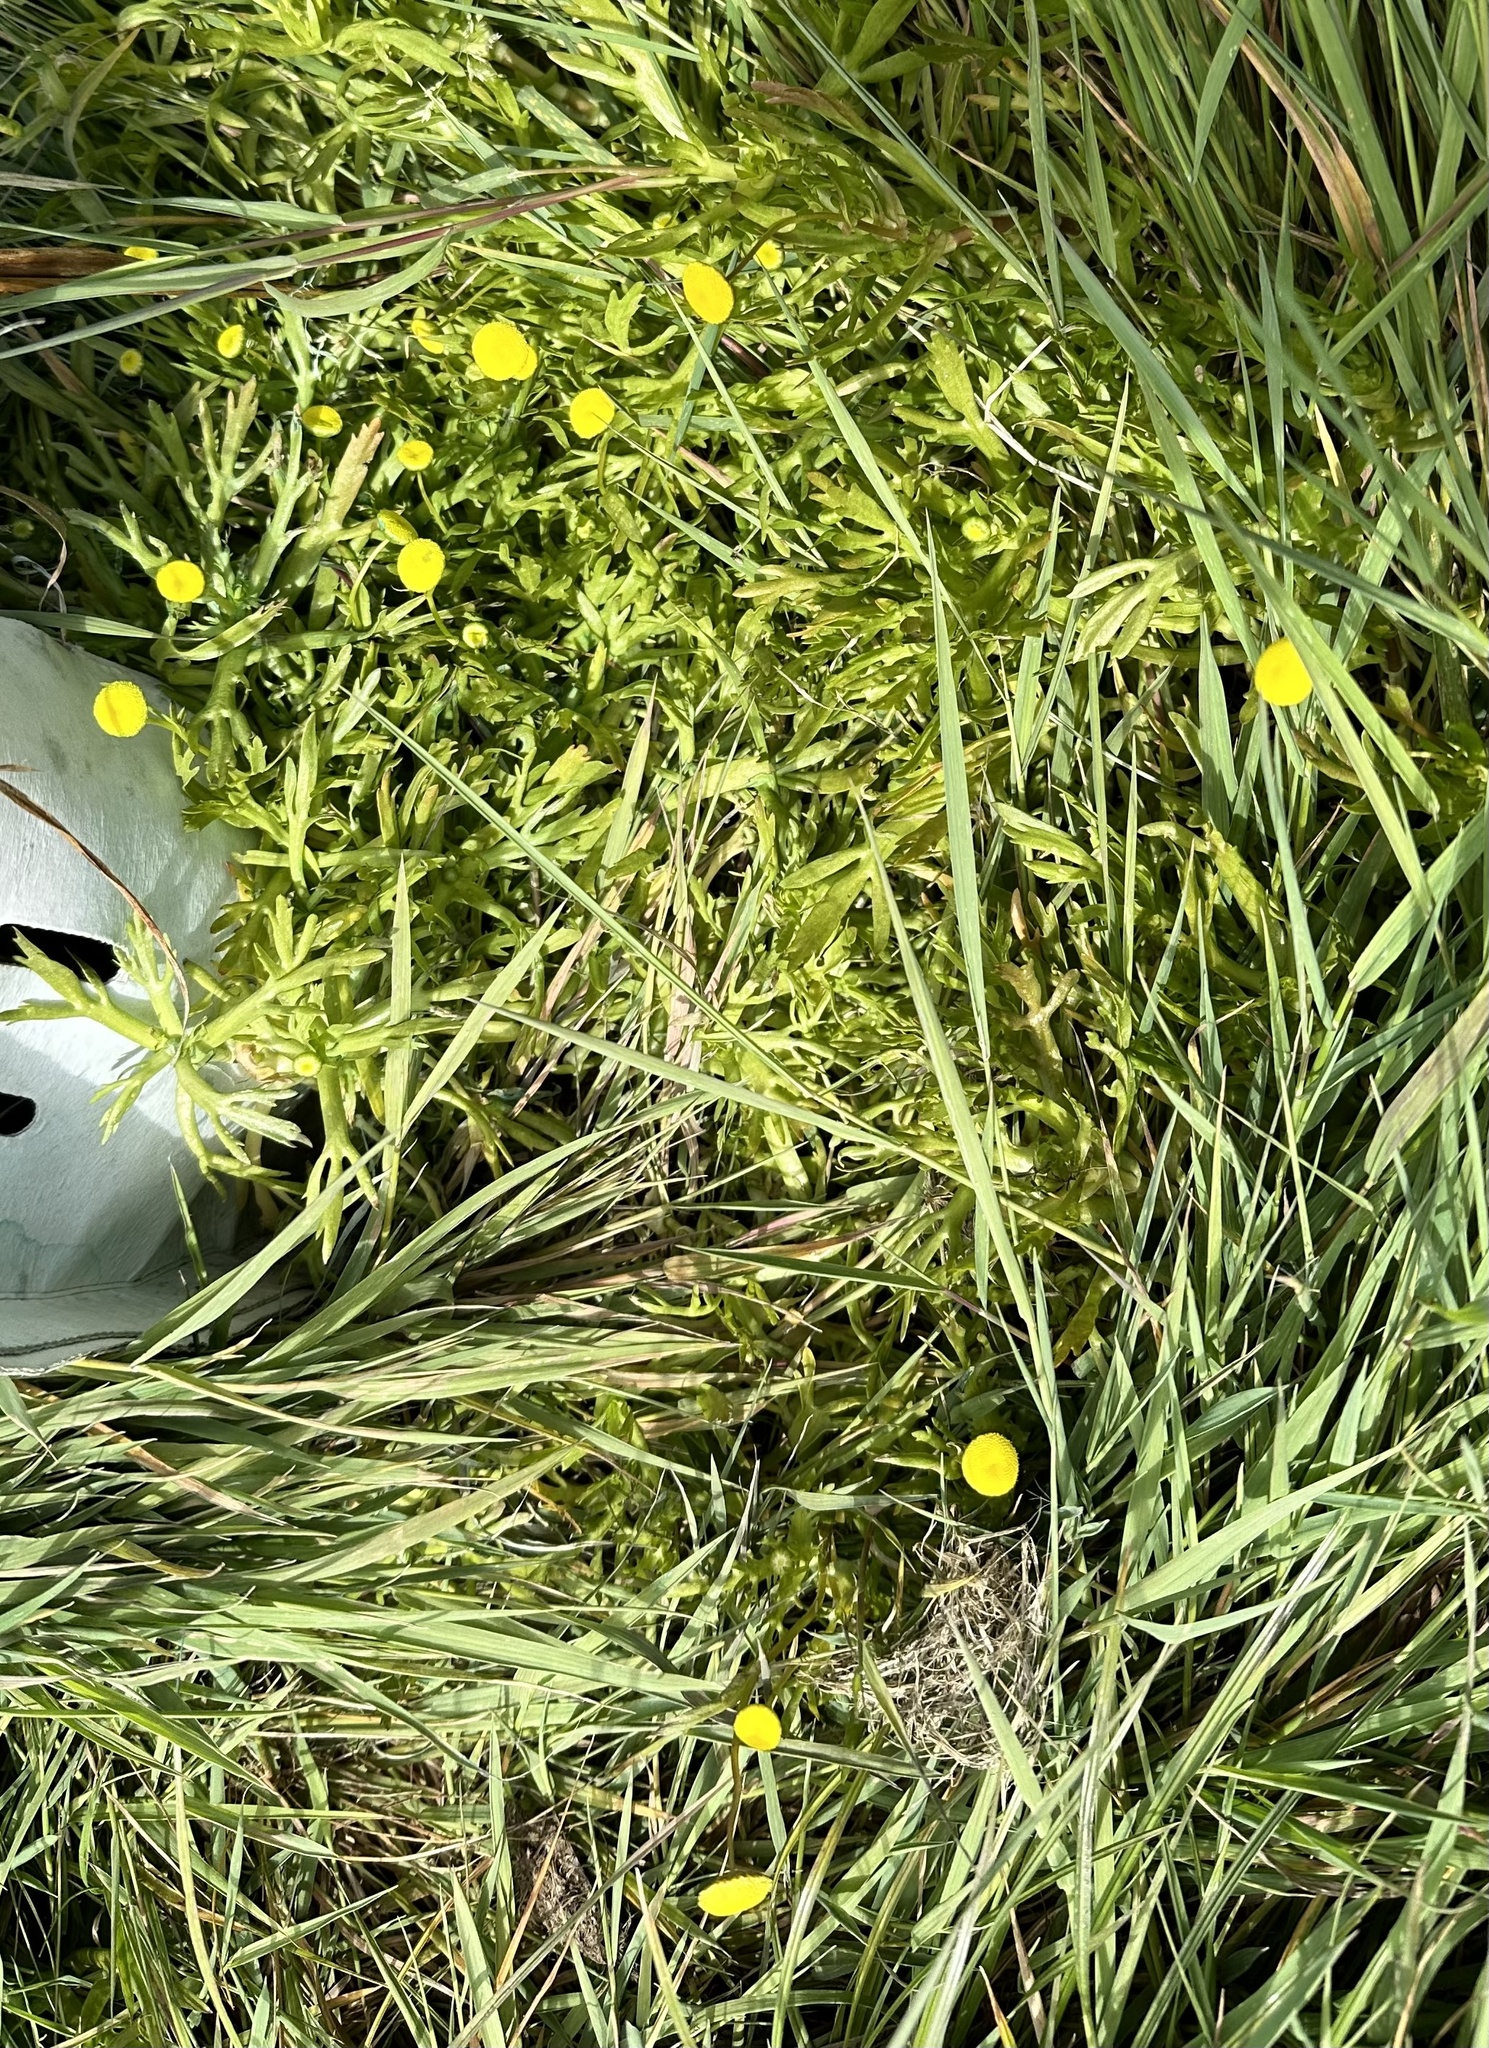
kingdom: Plantae
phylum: Tracheophyta
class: Magnoliopsida
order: Asterales
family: Asteraceae
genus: Cotula
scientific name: Cotula coronopifolia
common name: Buttonweed
